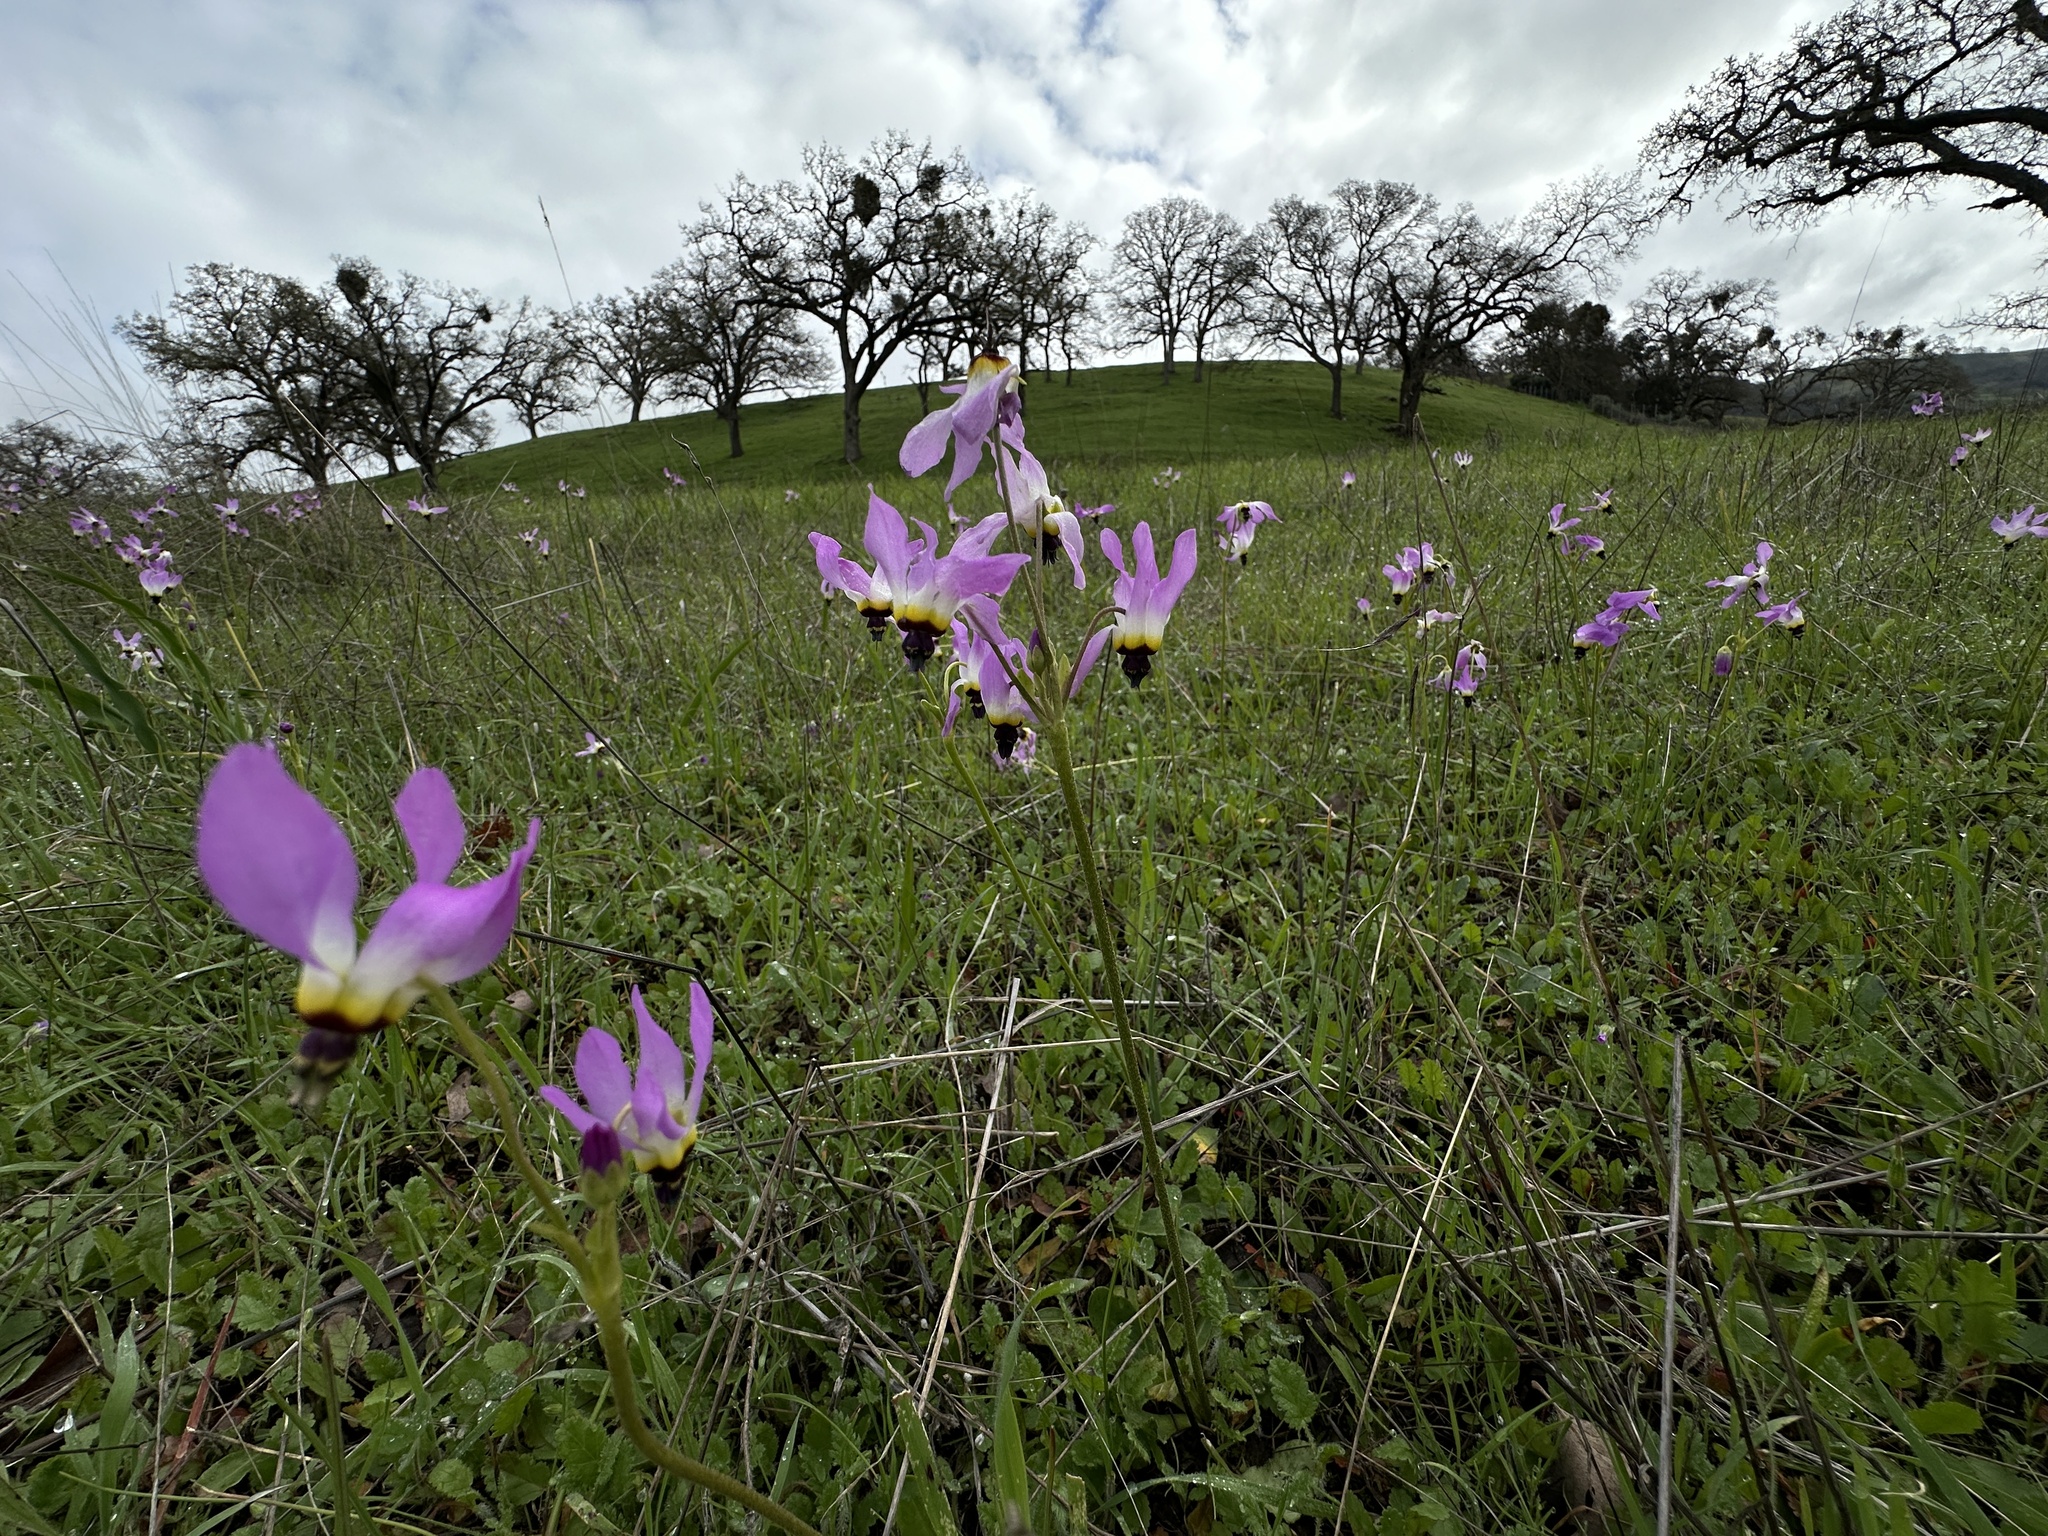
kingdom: Plantae
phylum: Tracheophyta
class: Magnoliopsida
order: Ericales
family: Primulaceae
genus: Dodecatheon
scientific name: Dodecatheon clevelandii
